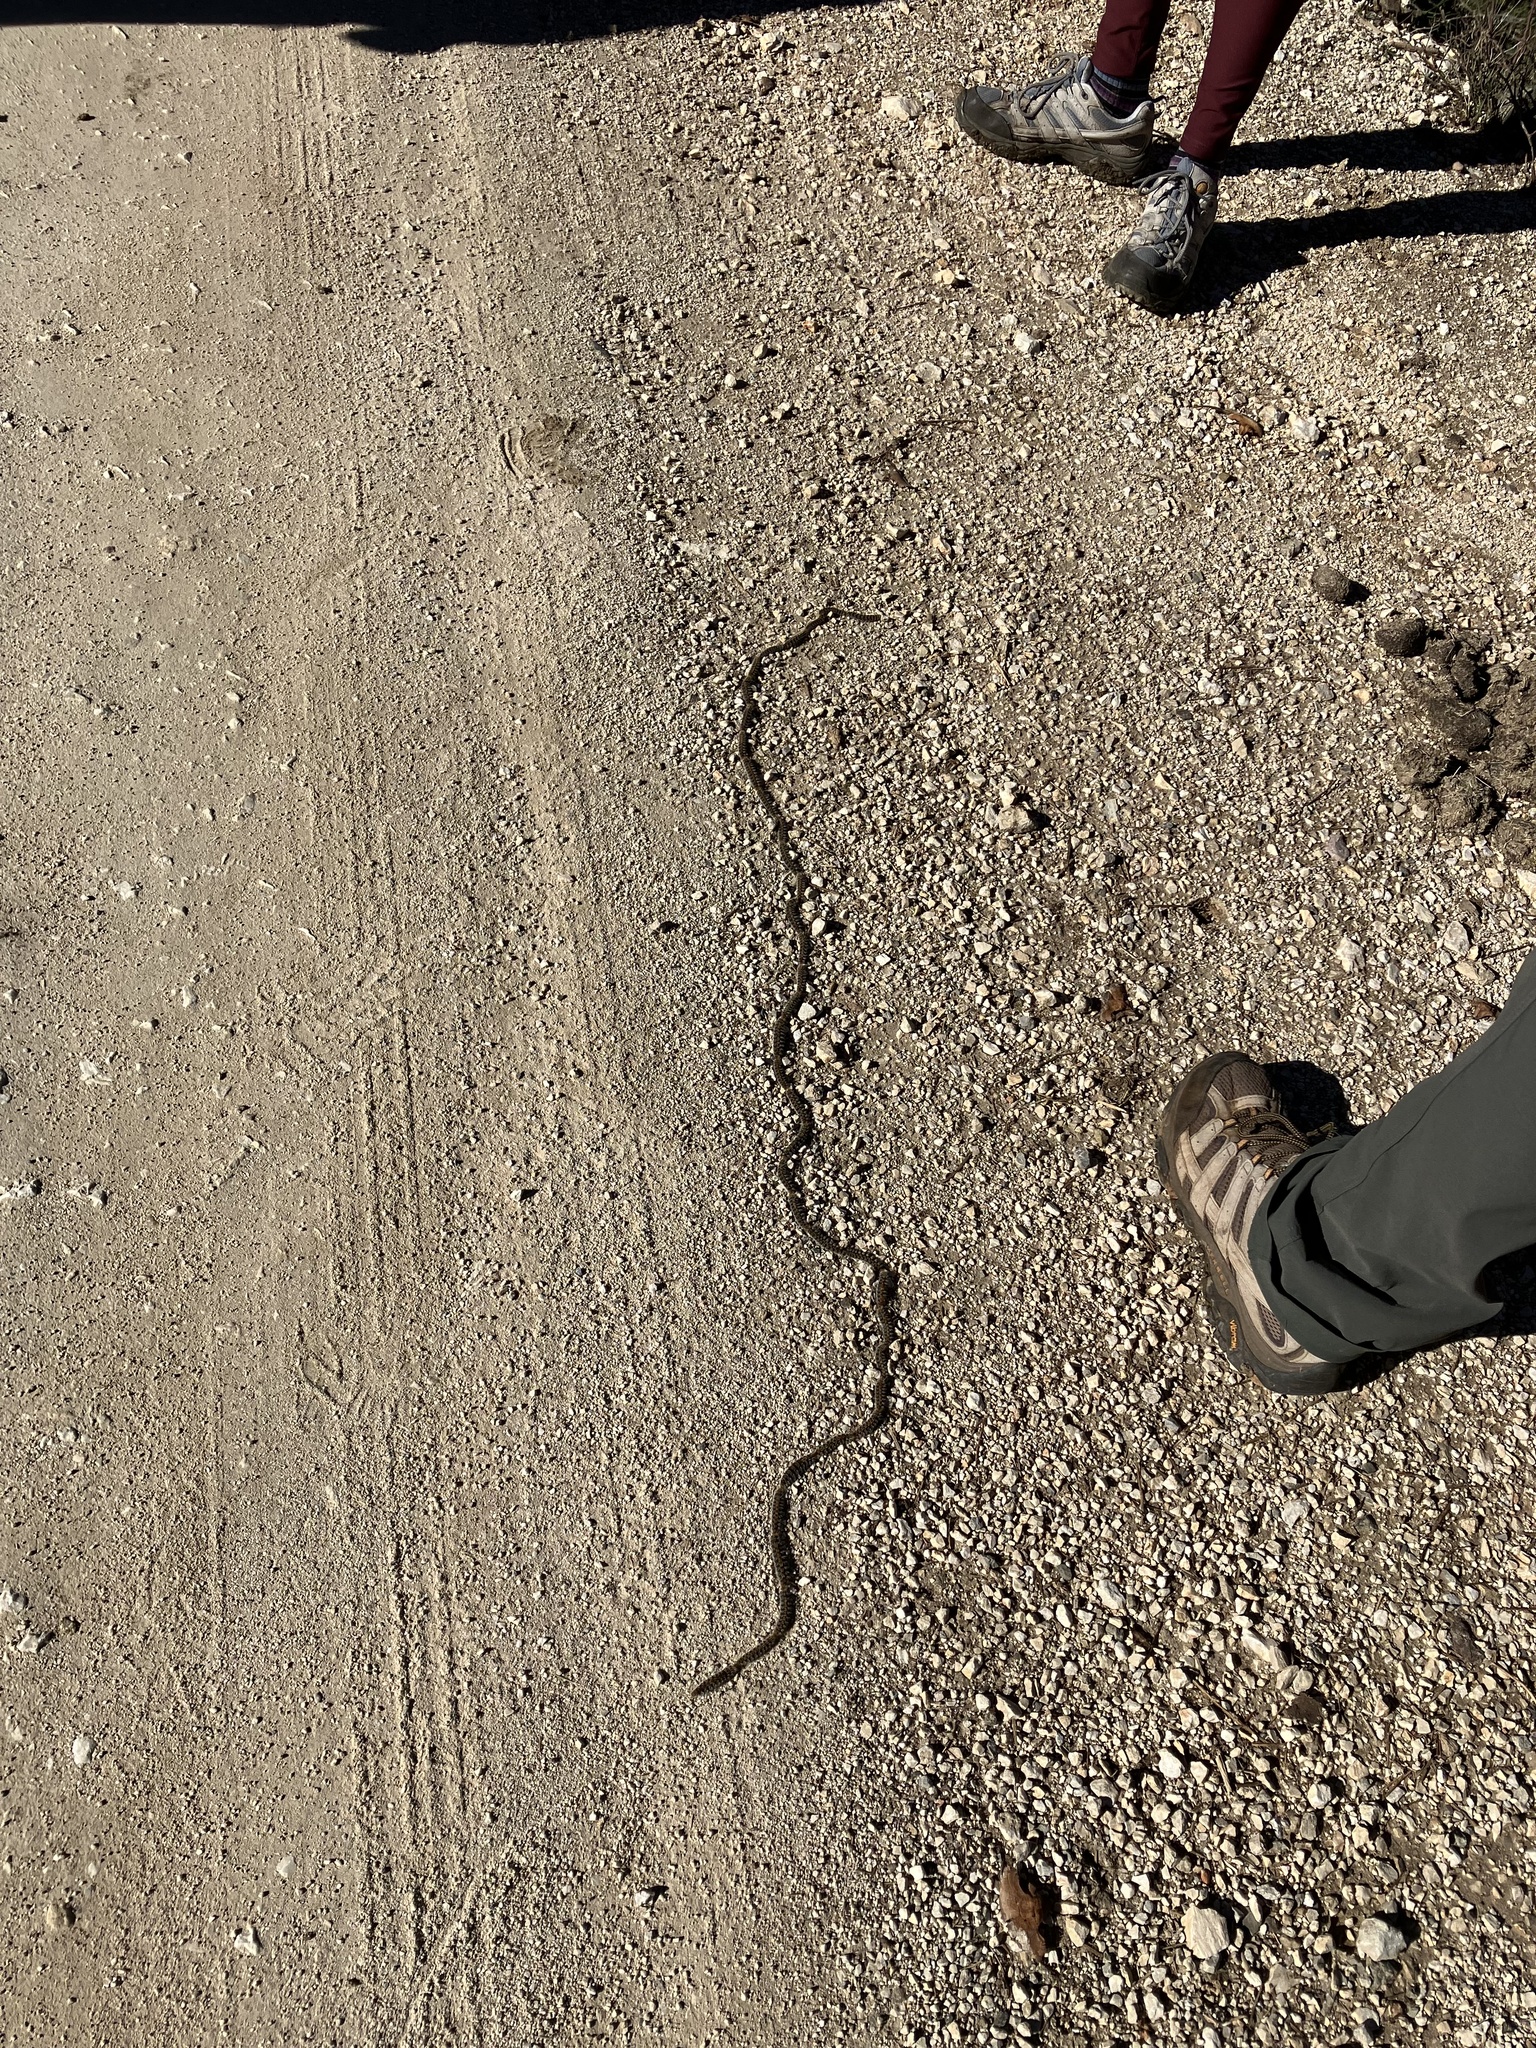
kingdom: Animalia
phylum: Arthropoda
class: Insecta
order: Lepidoptera
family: Notodontidae
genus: Thaumetopoea
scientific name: Thaumetopoea pityocampa
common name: Pine processionary
